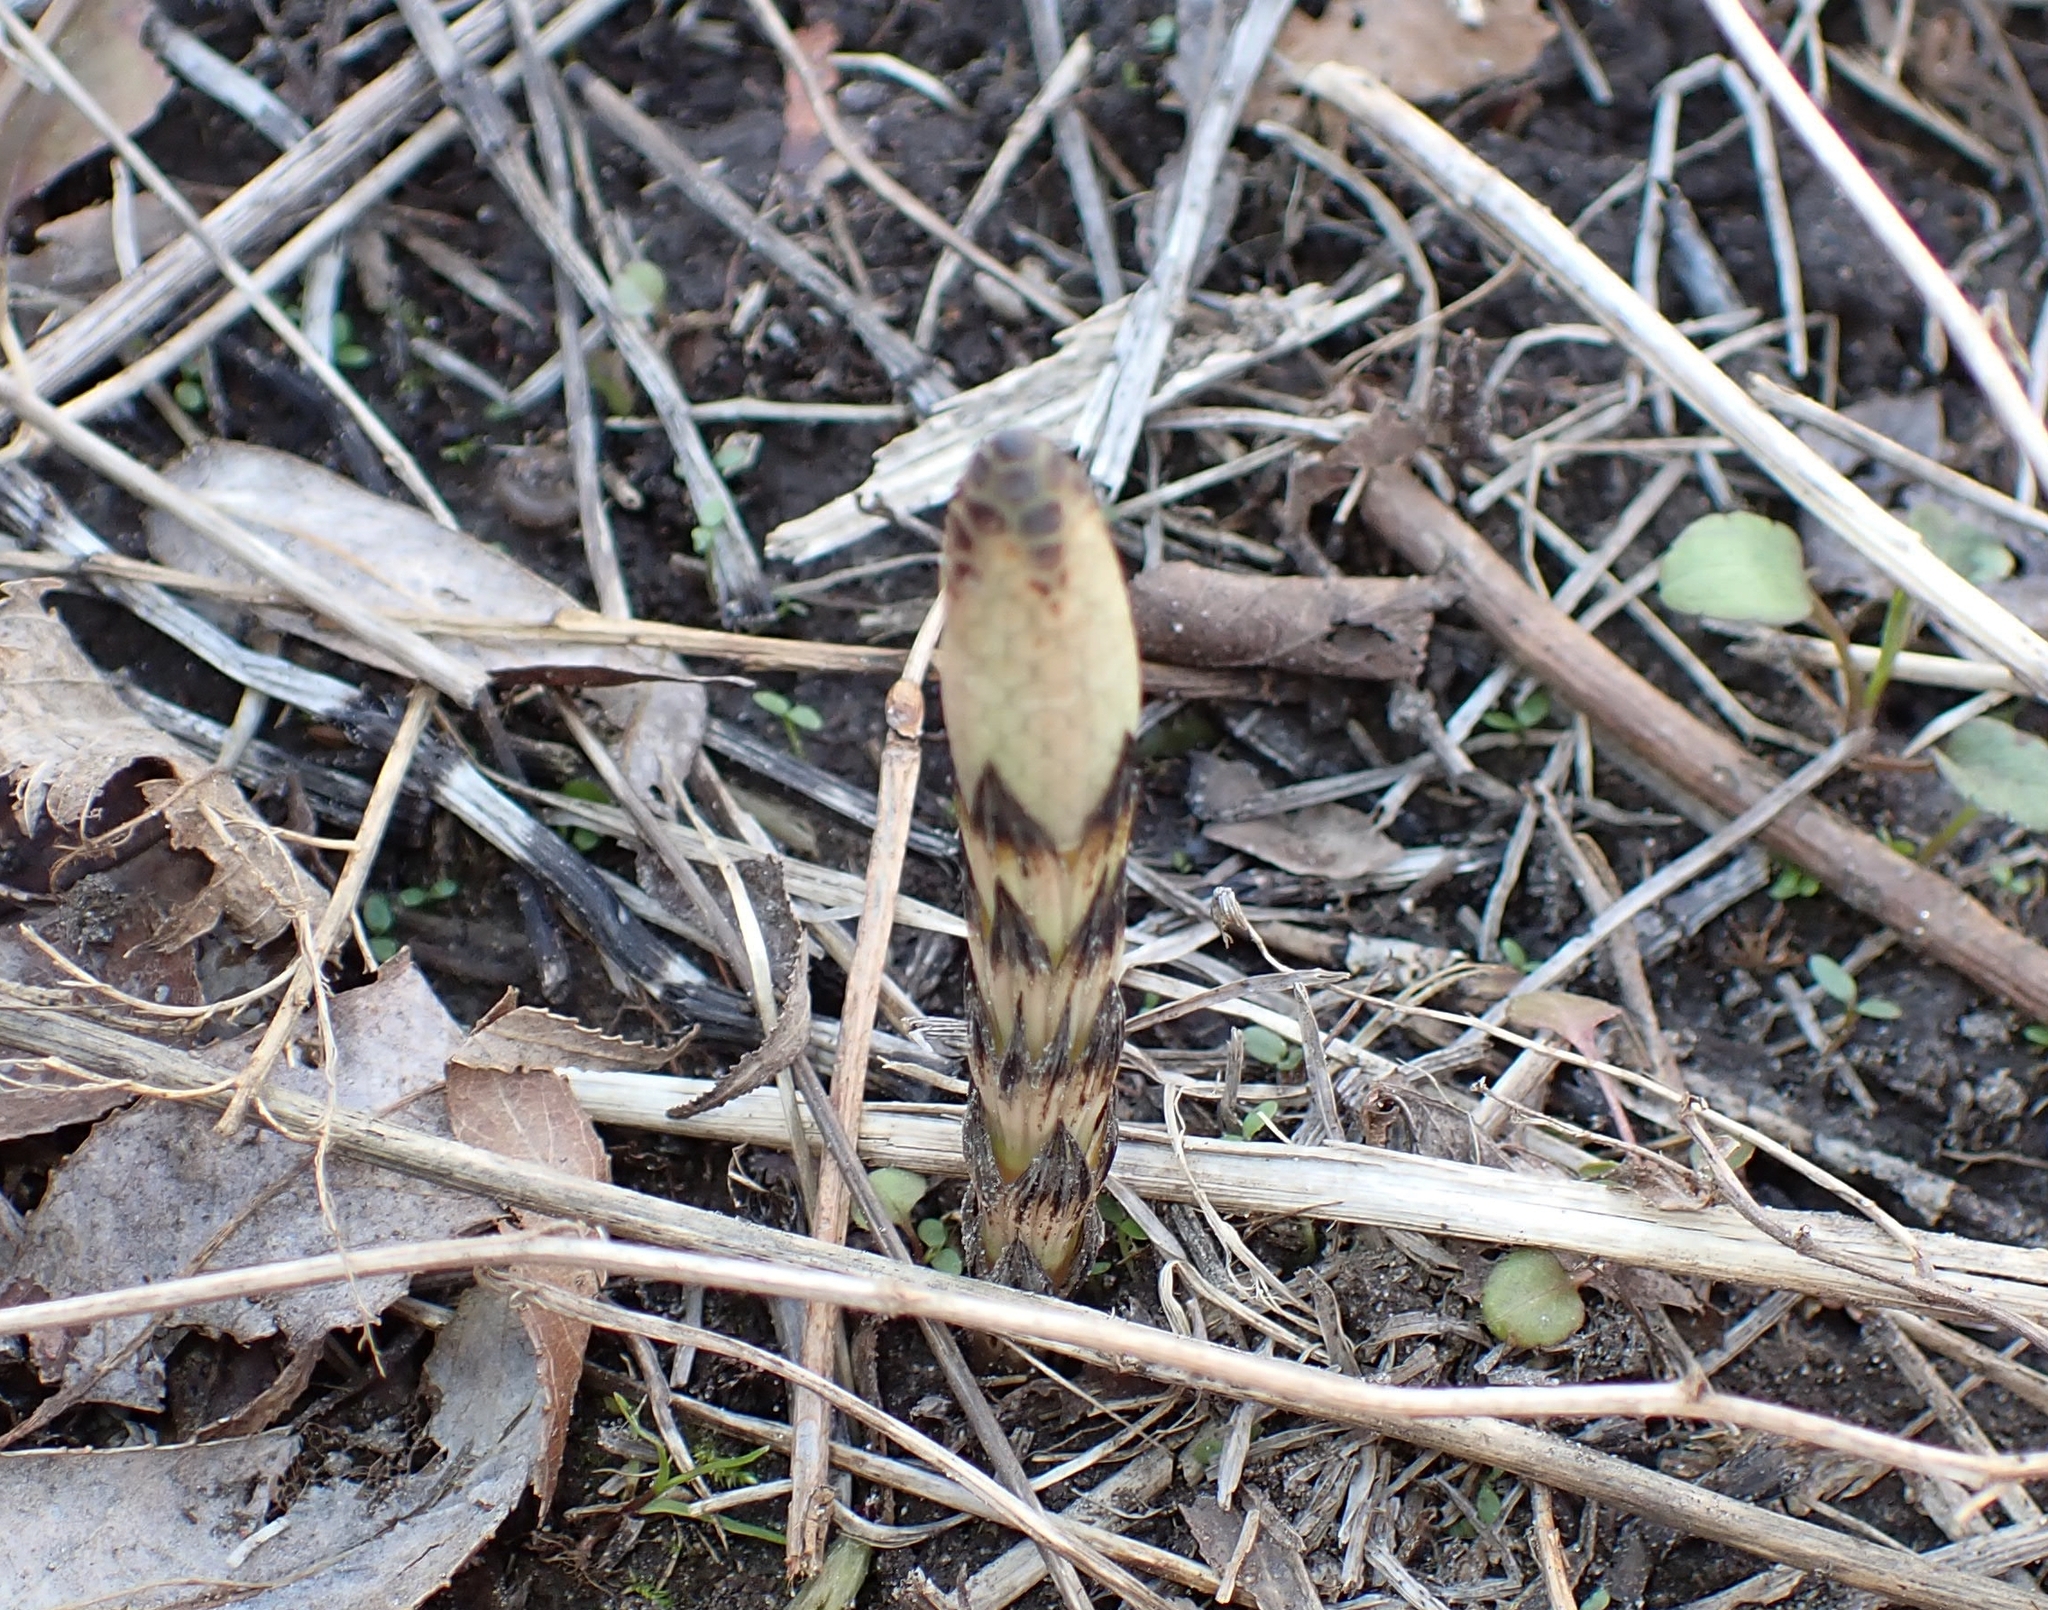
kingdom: Plantae
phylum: Tracheophyta
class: Polypodiopsida
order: Equisetales
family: Equisetaceae
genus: Equisetum
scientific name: Equisetum arvense
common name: Field horsetail
